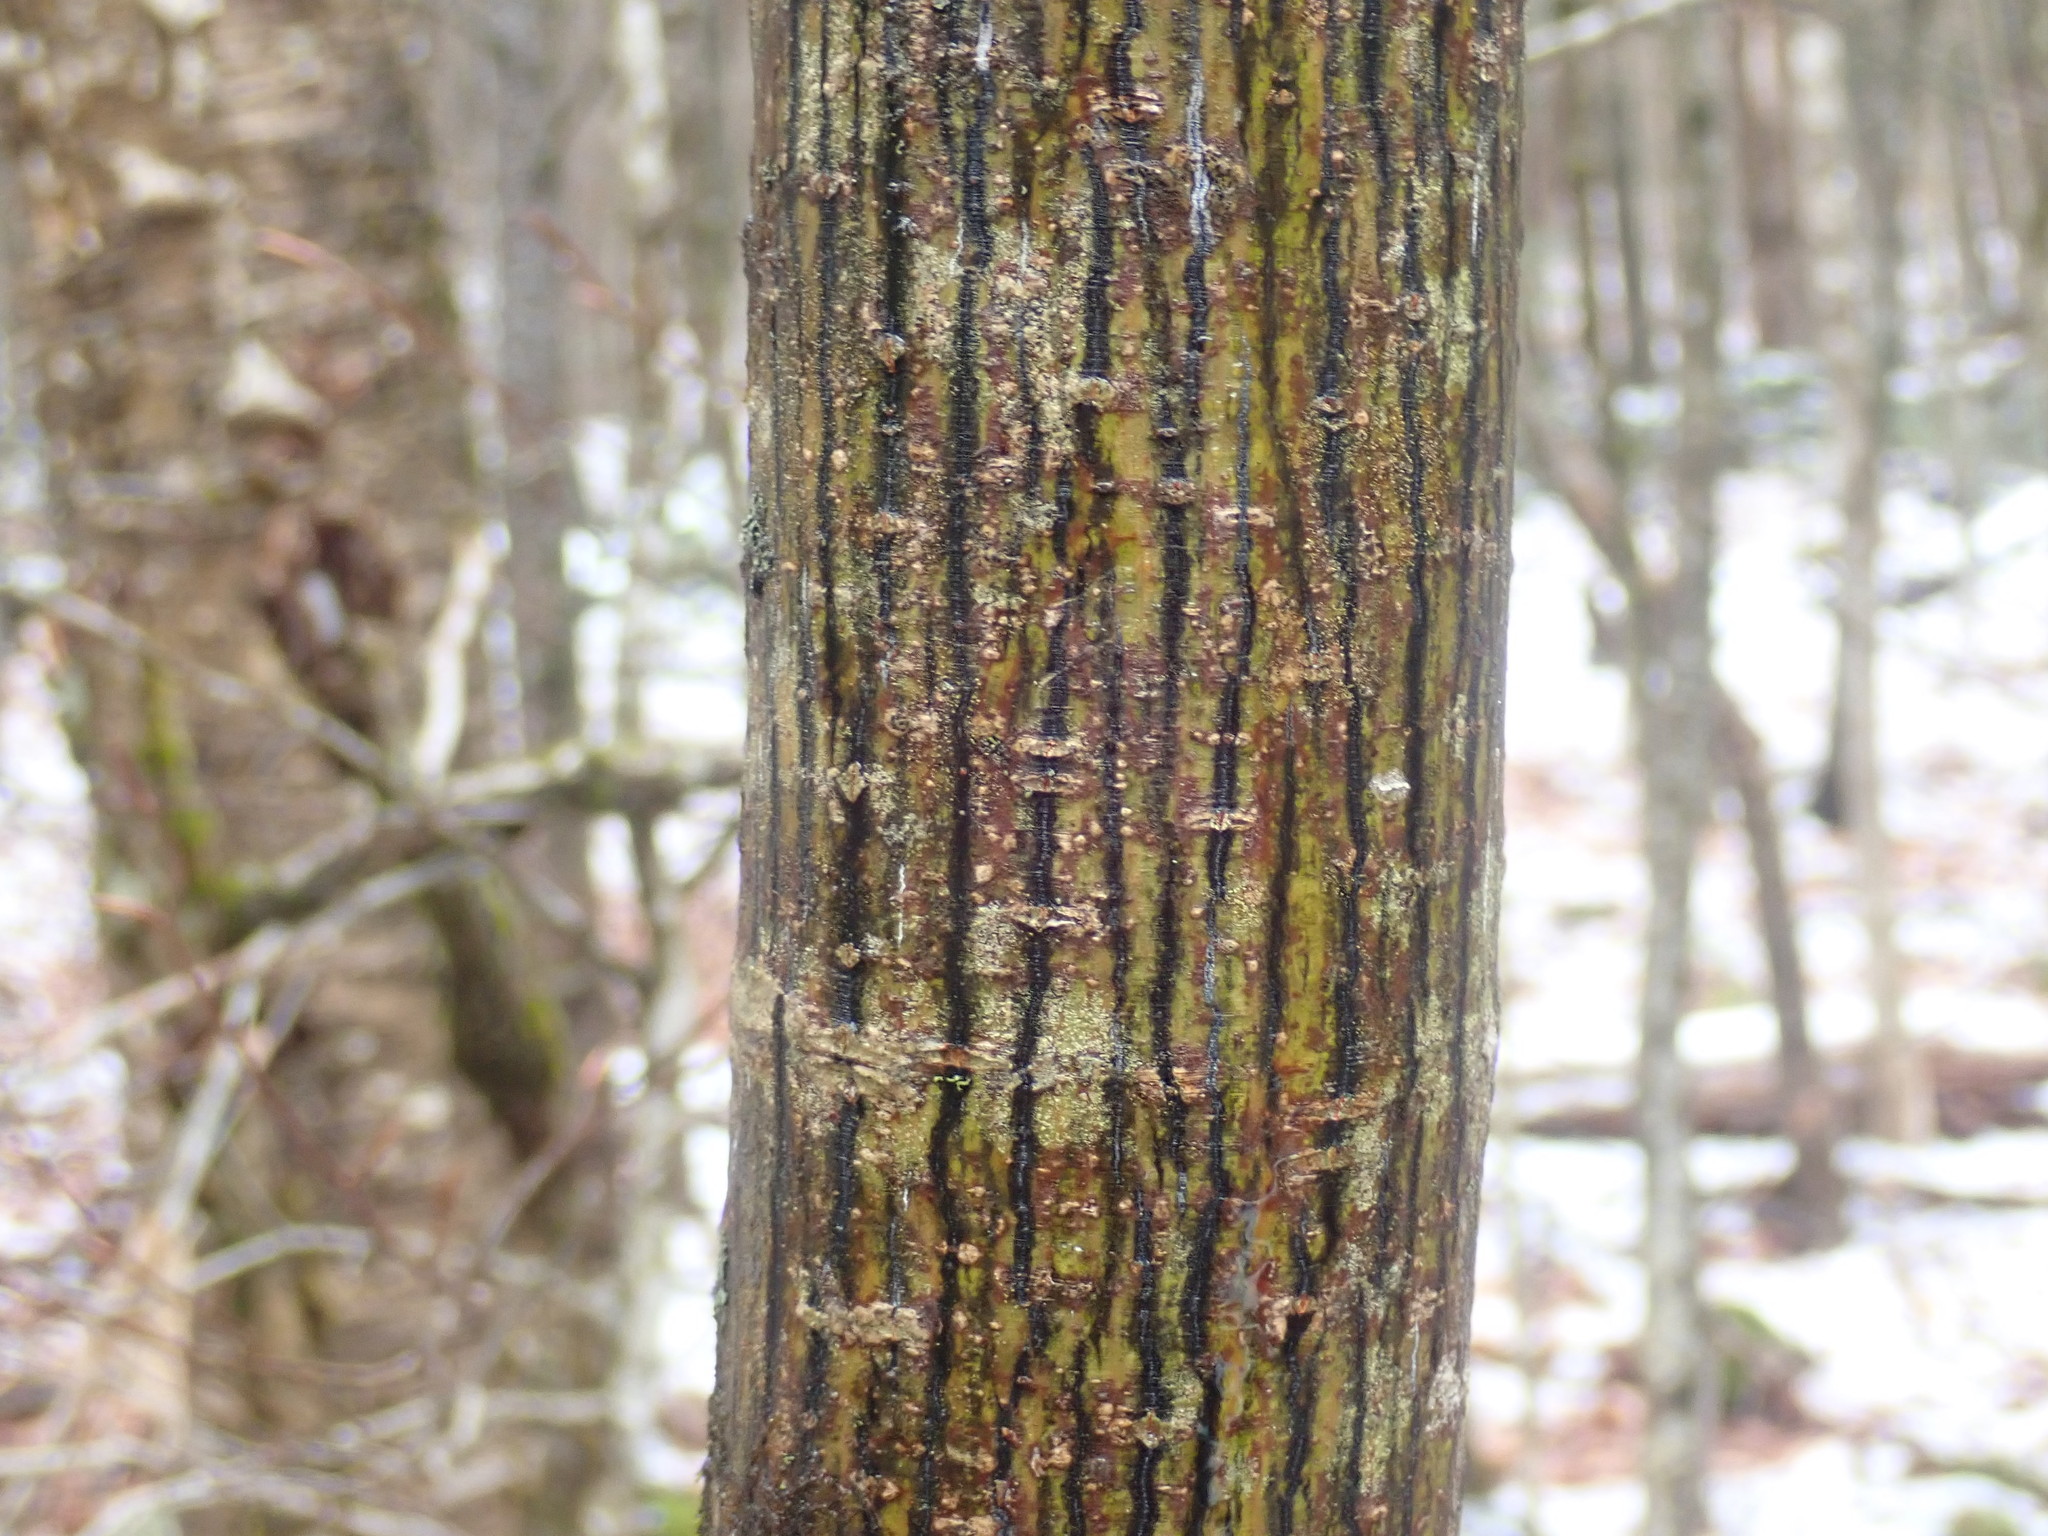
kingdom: Plantae
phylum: Tracheophyta
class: Magnoliopsida
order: Sapindales
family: Sapindaceae
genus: Acer
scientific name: Acer pensylvanicum
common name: Moosewood
